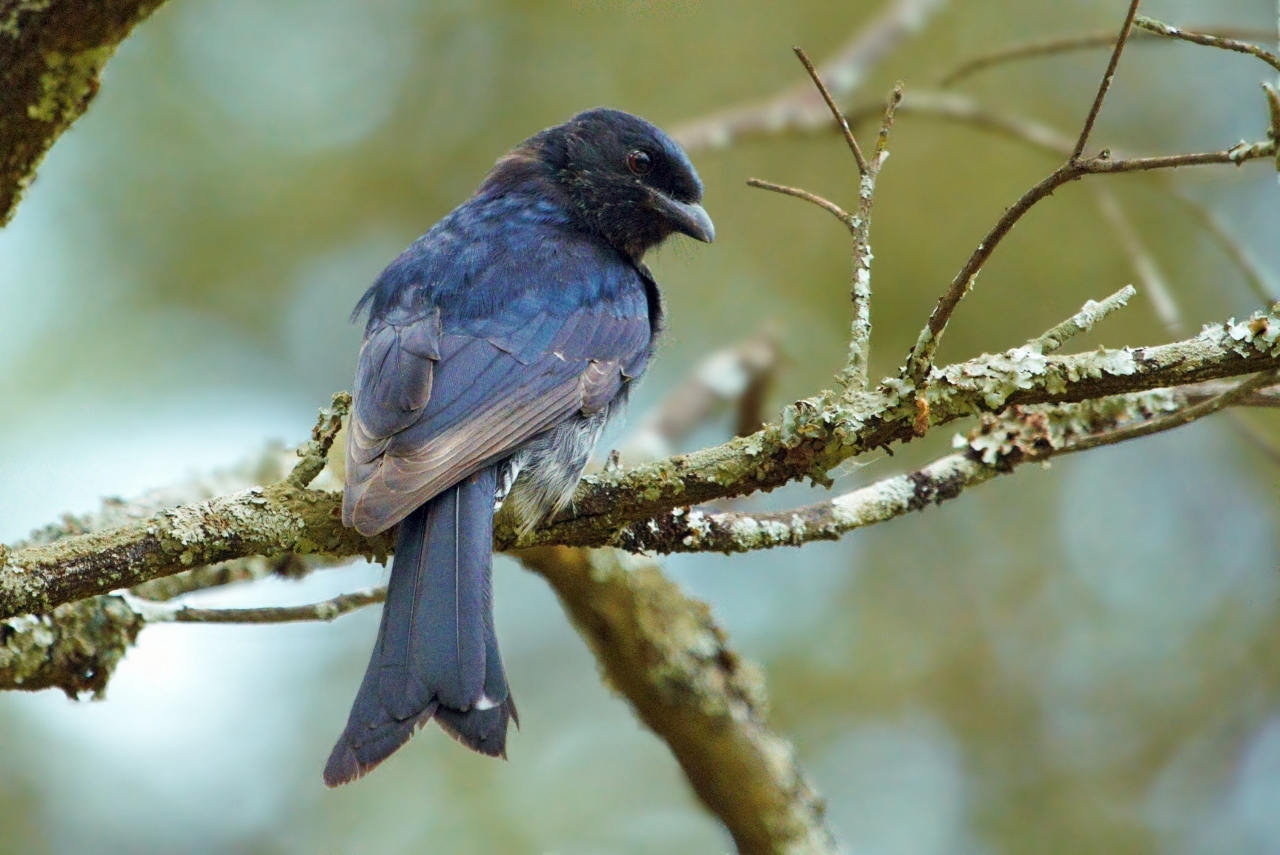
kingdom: Animalia
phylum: Chordata
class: Aves
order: Passeriformes
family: Dicruridae
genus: Dicrurus
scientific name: Dicrurus adsimilis
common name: Fork-tailed drongo
